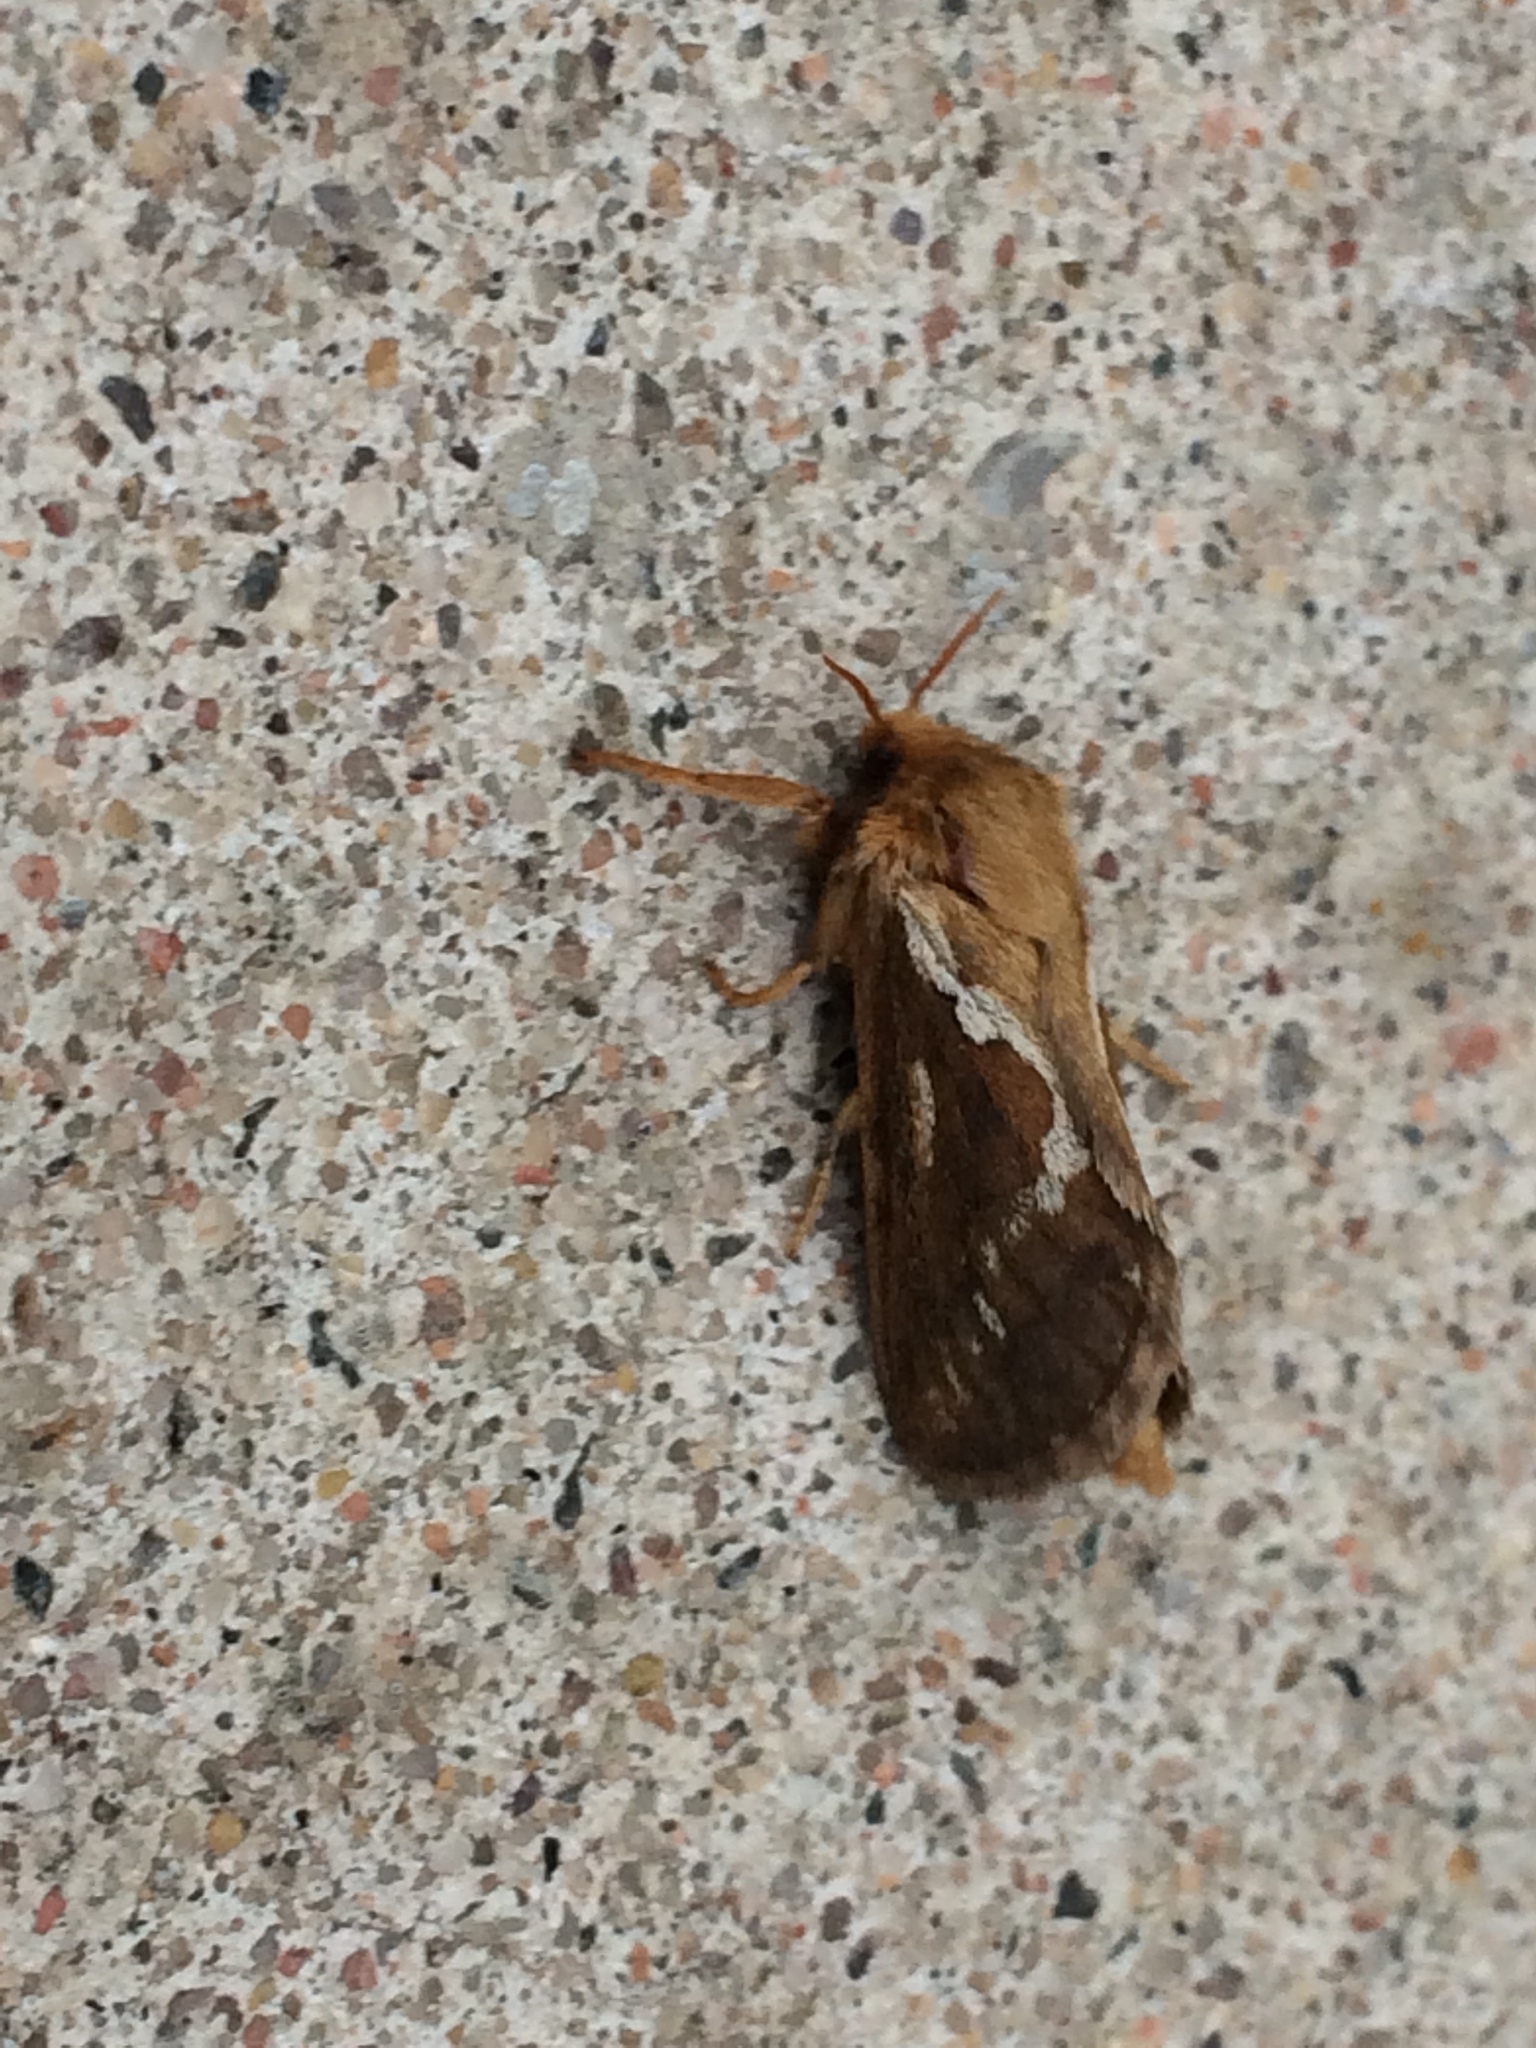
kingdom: Animalia
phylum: Arthropoda
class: Insecta
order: Lepidoptera
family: Hepialidae
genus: Korscheltellus
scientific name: Korscheltellus lupulina
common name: Common swift
